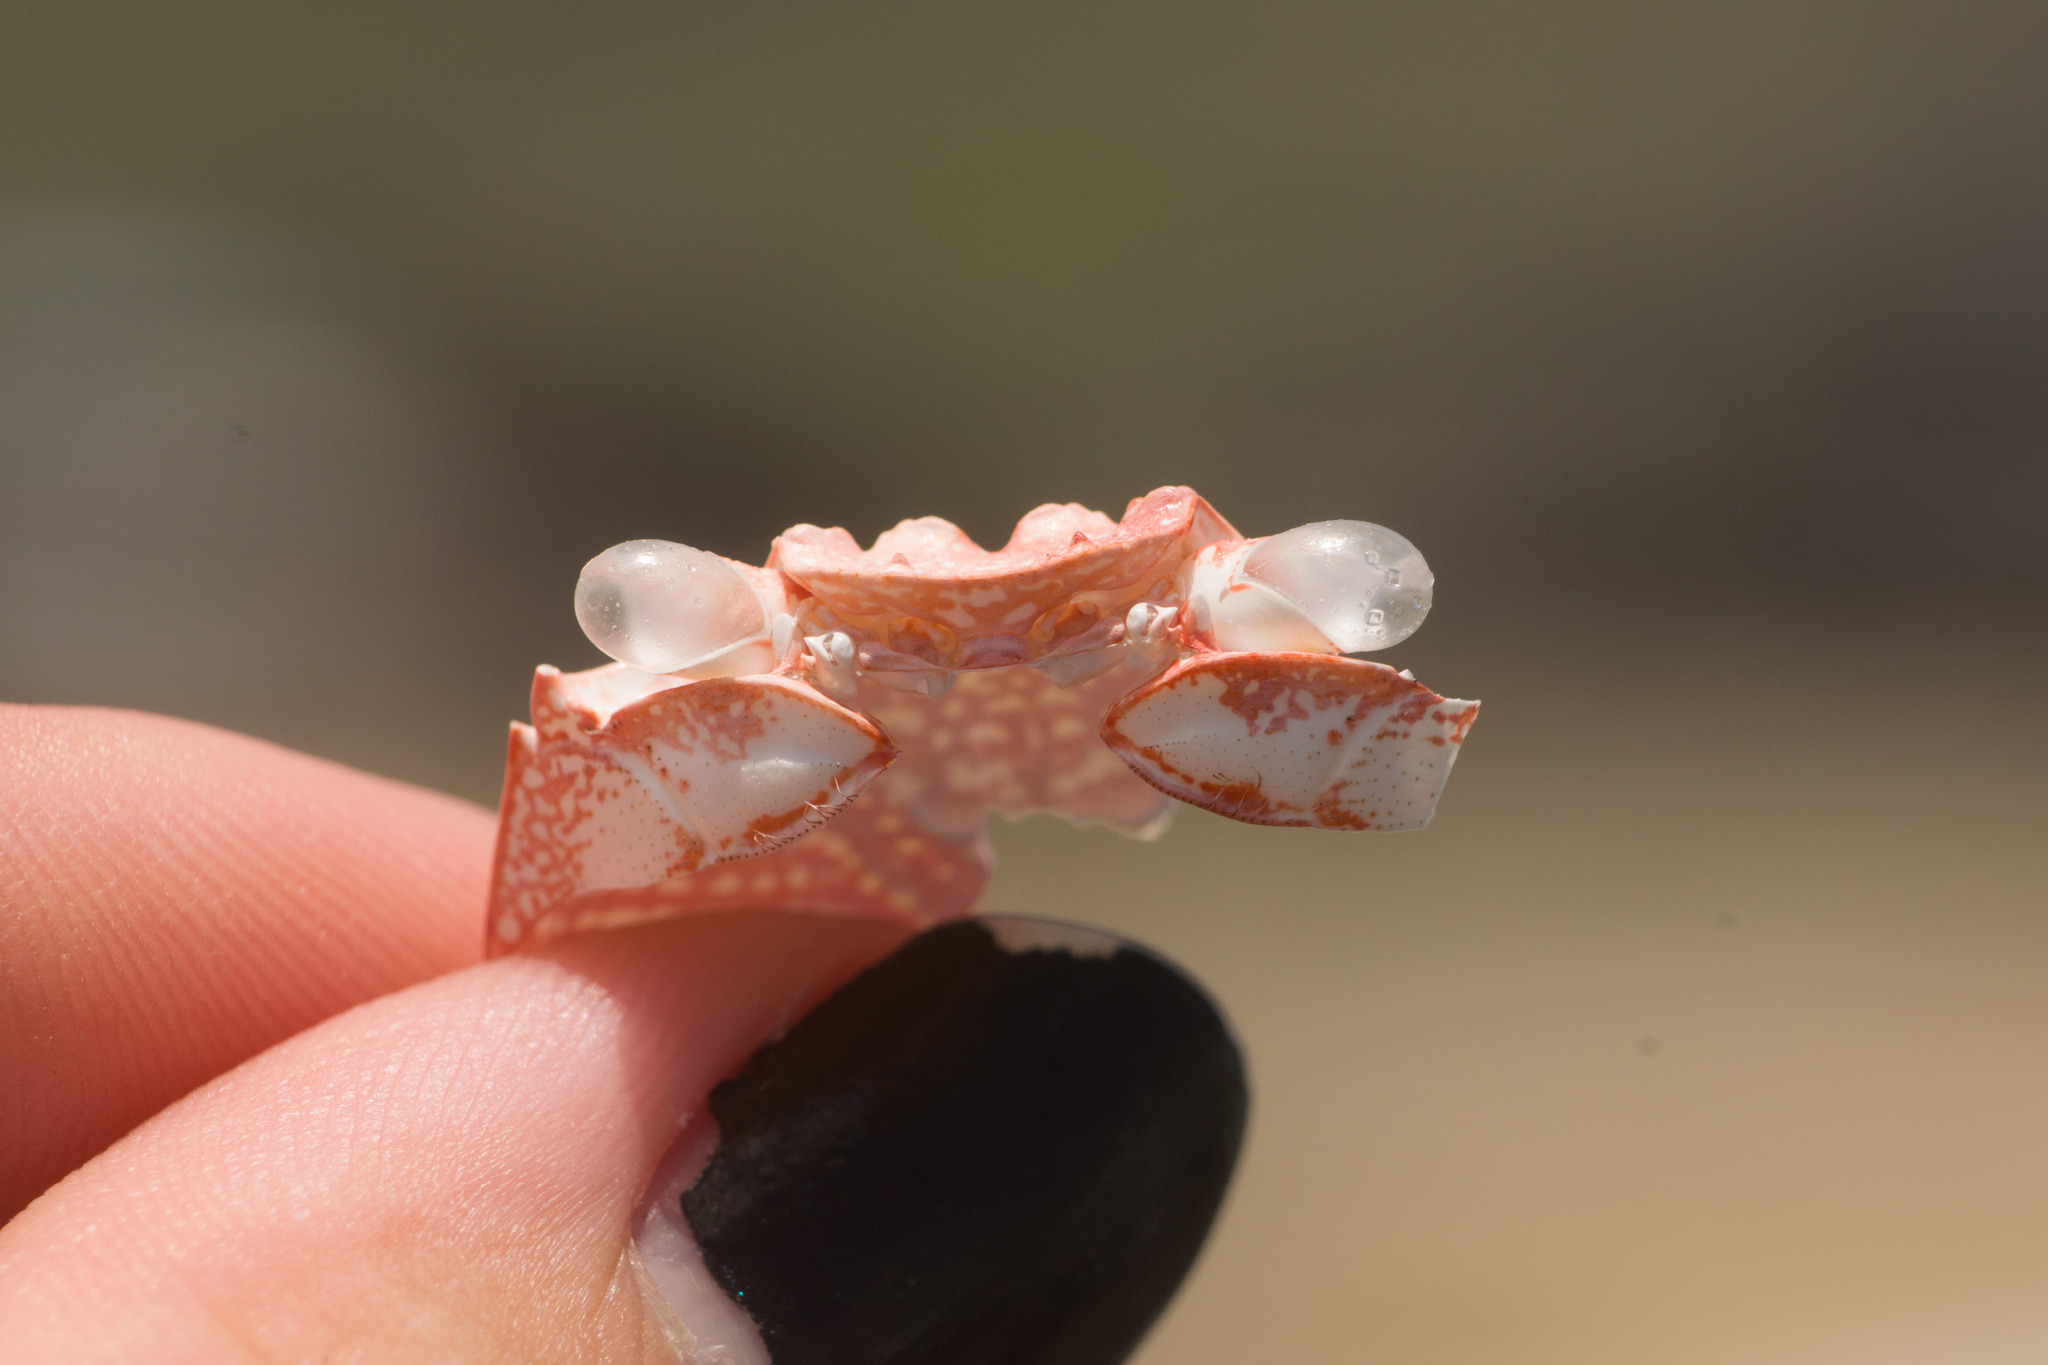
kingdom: Animalia
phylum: Arthropoda
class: Malacostraca
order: Decapoda
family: Grapsidae
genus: Grapsus
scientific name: Grapsus tenuicrustatus
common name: Natal lightfoot crab
